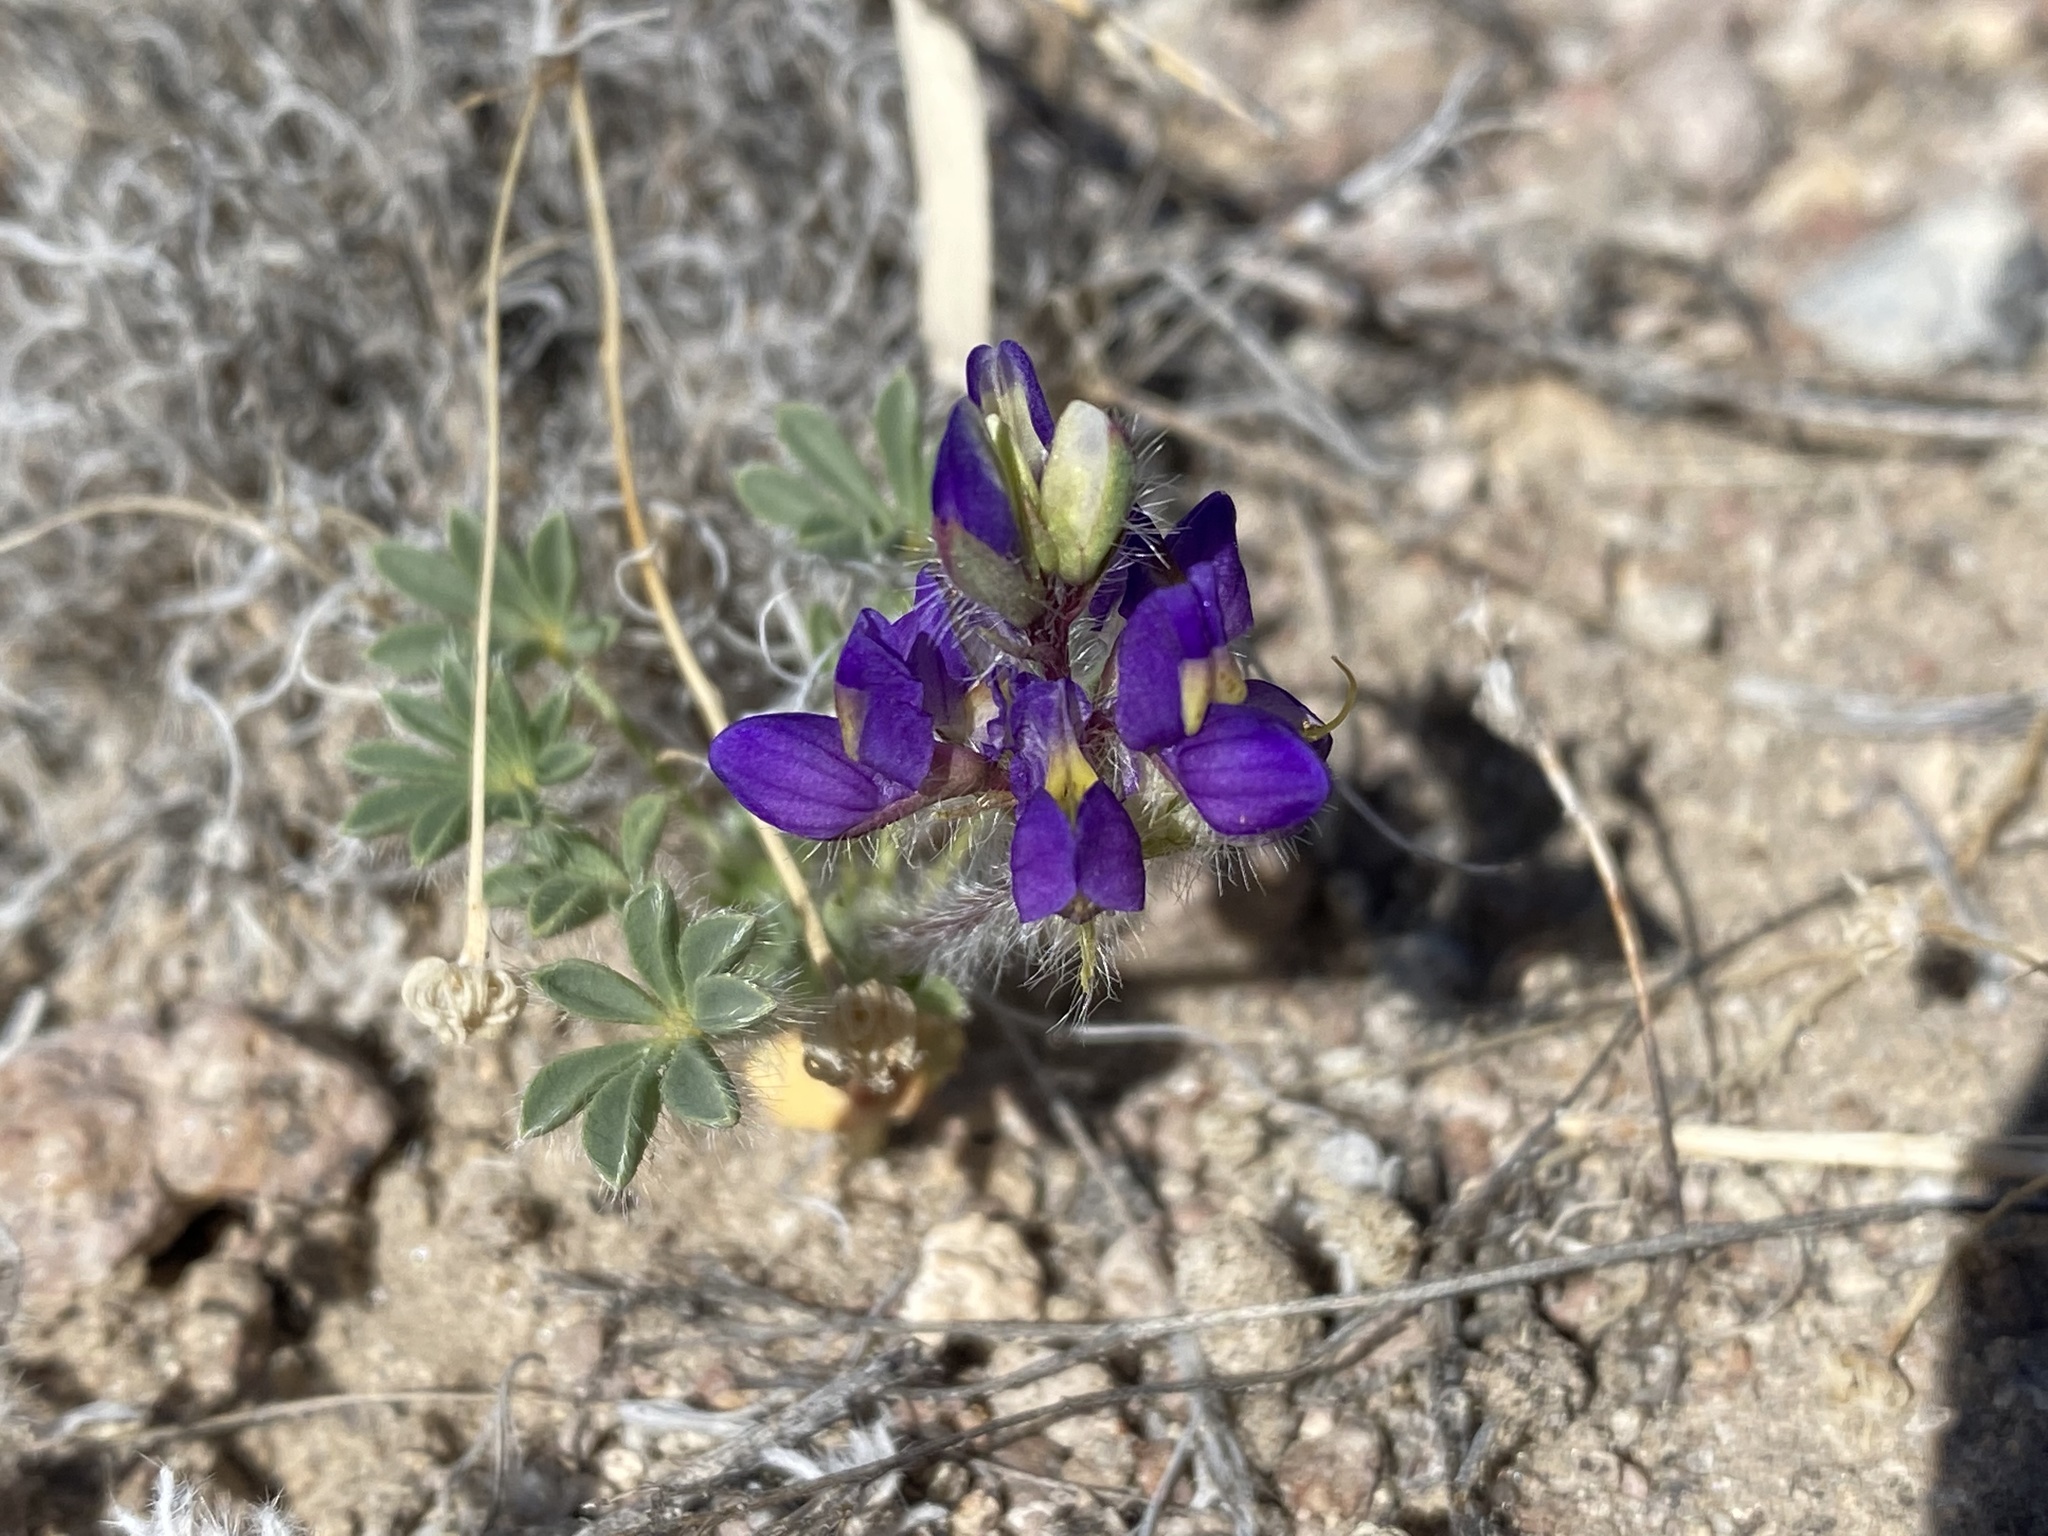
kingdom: Plantae
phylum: Tracheophyta
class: Magnoliopsida
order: Fabales
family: Fabaceae
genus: Lupinus
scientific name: Lupinus flavoculatus
